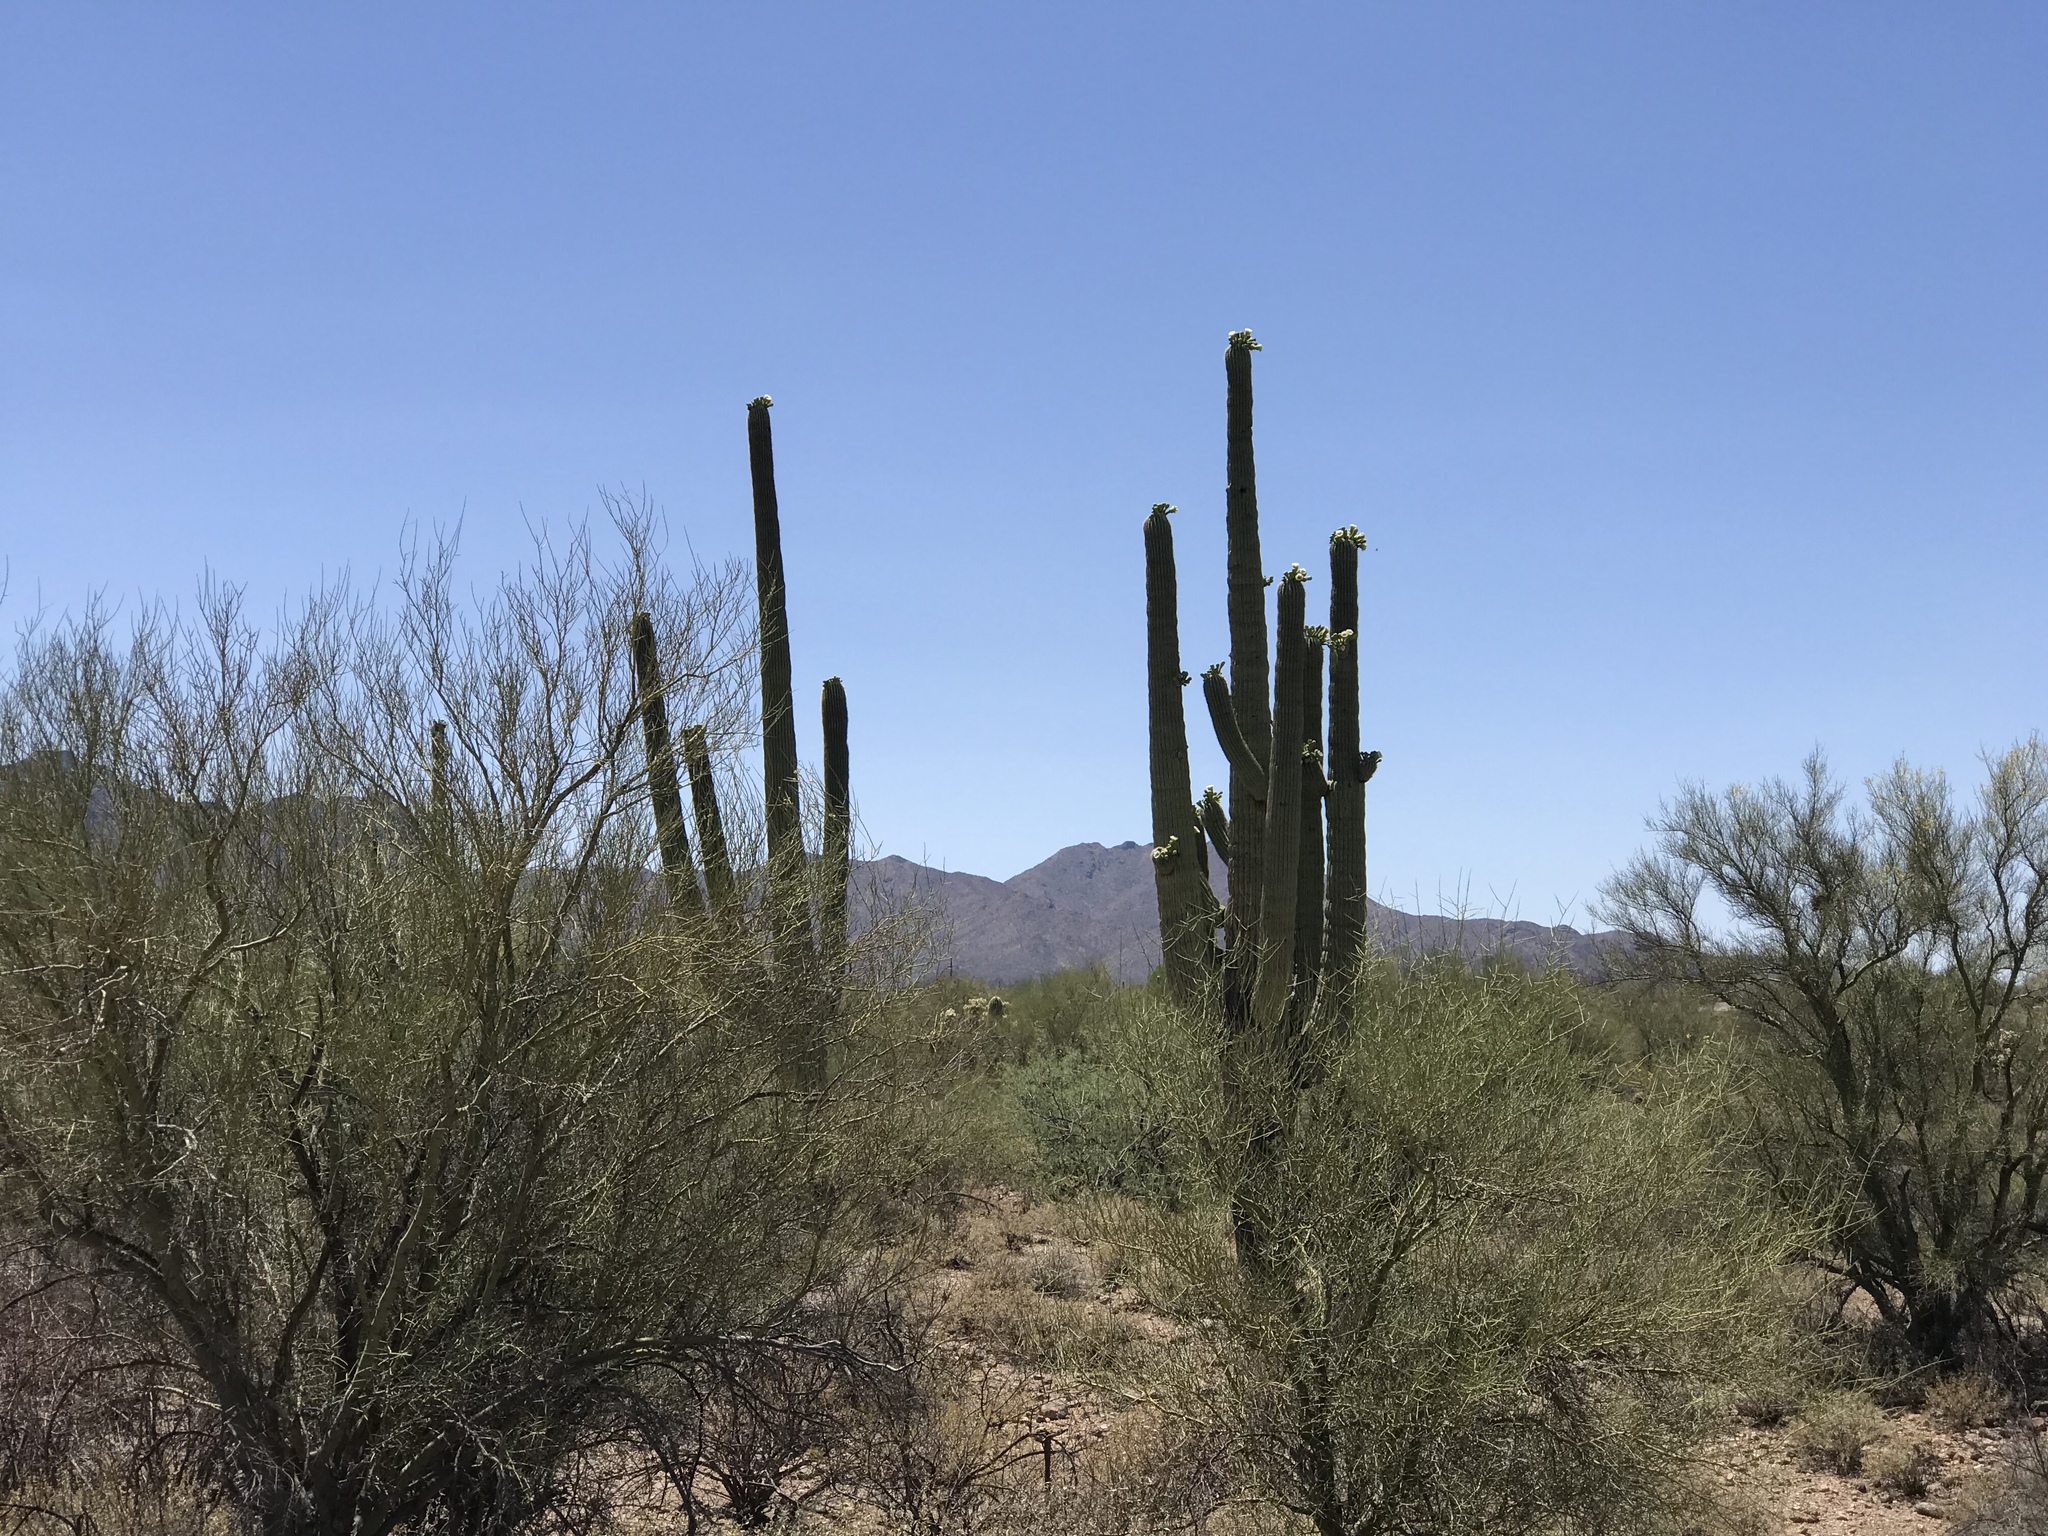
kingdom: Plantae
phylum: Tracheophyta
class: Magnoliopsida
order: Caryophyllales
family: Cactaceae
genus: Carnegiea
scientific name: Carnegiea gigantea
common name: Saguaro
